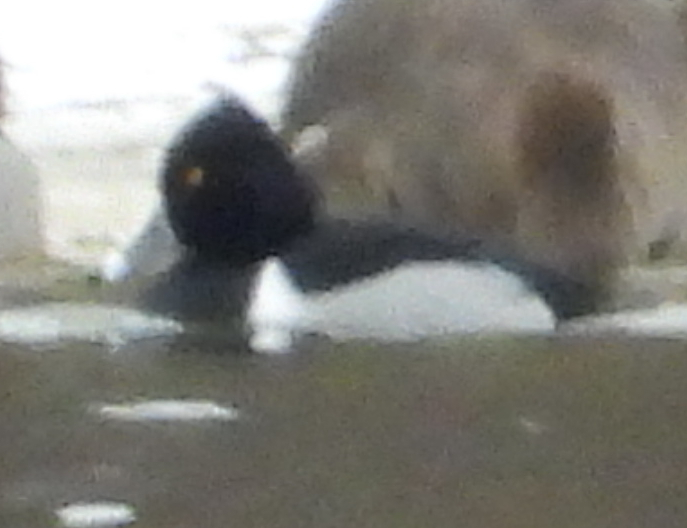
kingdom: Animalia
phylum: Chordata
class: Aves
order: Anseriformes
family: Anatidae
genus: Aythya
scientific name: Aythya collaris
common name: Ring-necked duck
